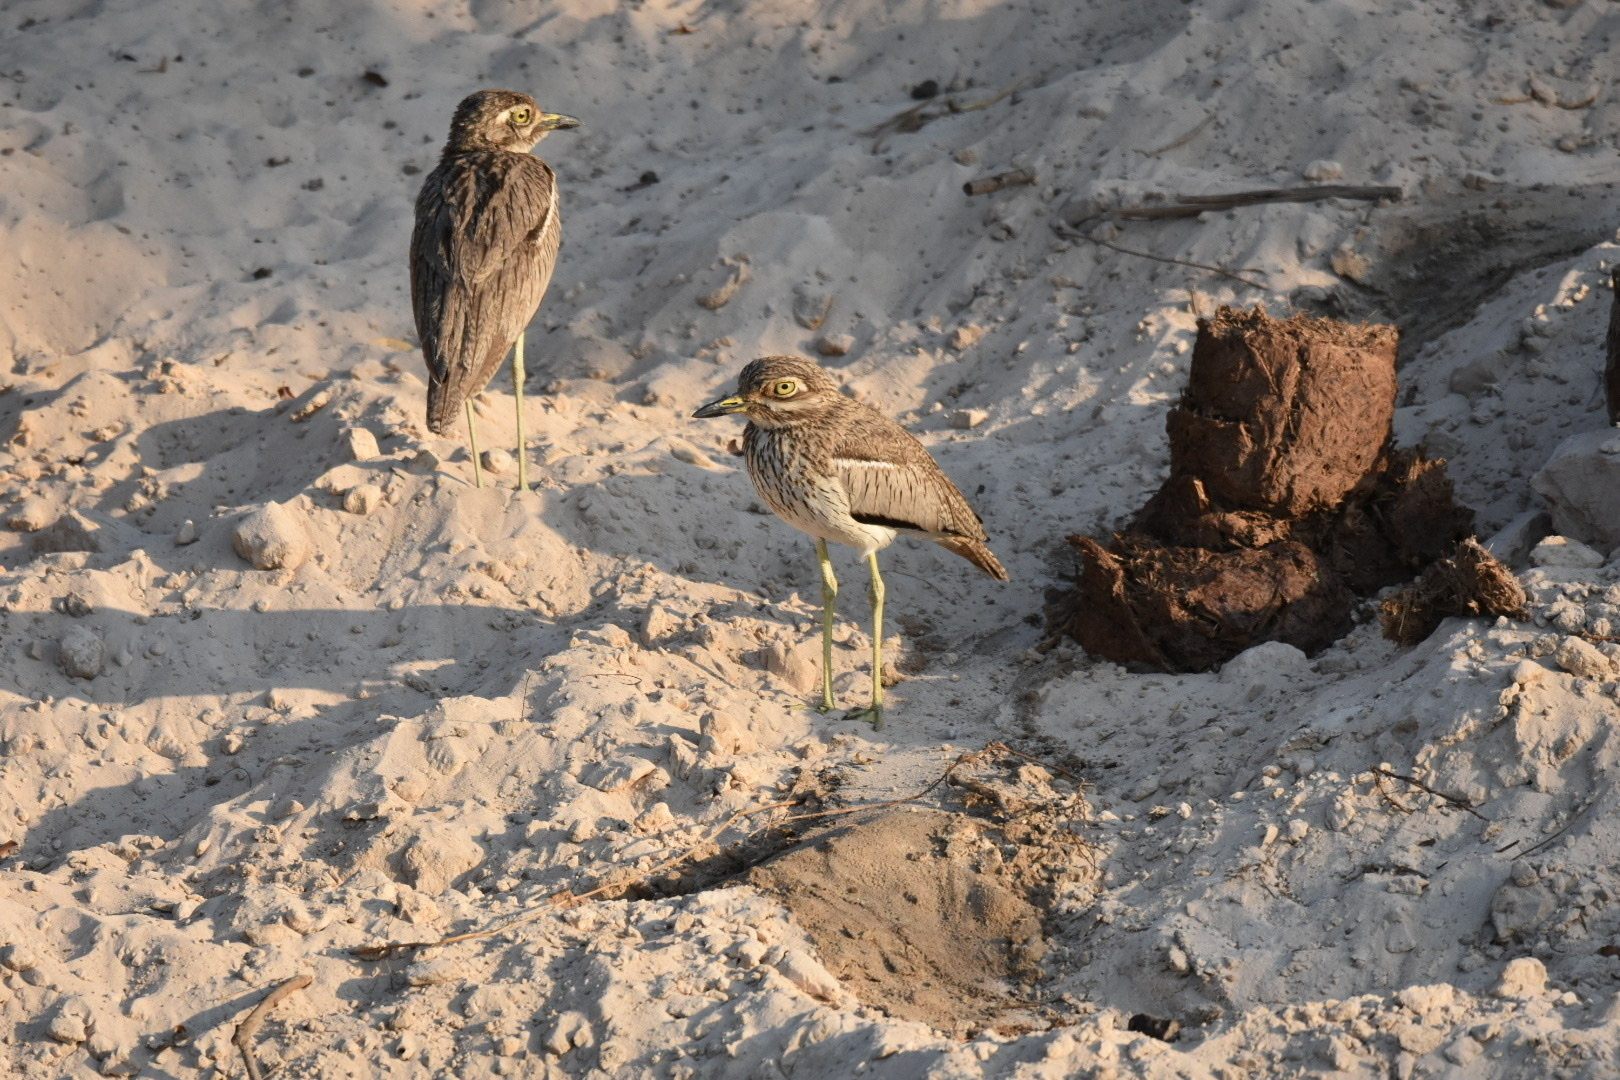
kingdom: Animalia
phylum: Chordata
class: Aves
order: Charadriiformes
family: Burhinidae
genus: Burhinus
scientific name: Burhinus vermiculatus
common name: Water thick-knee
